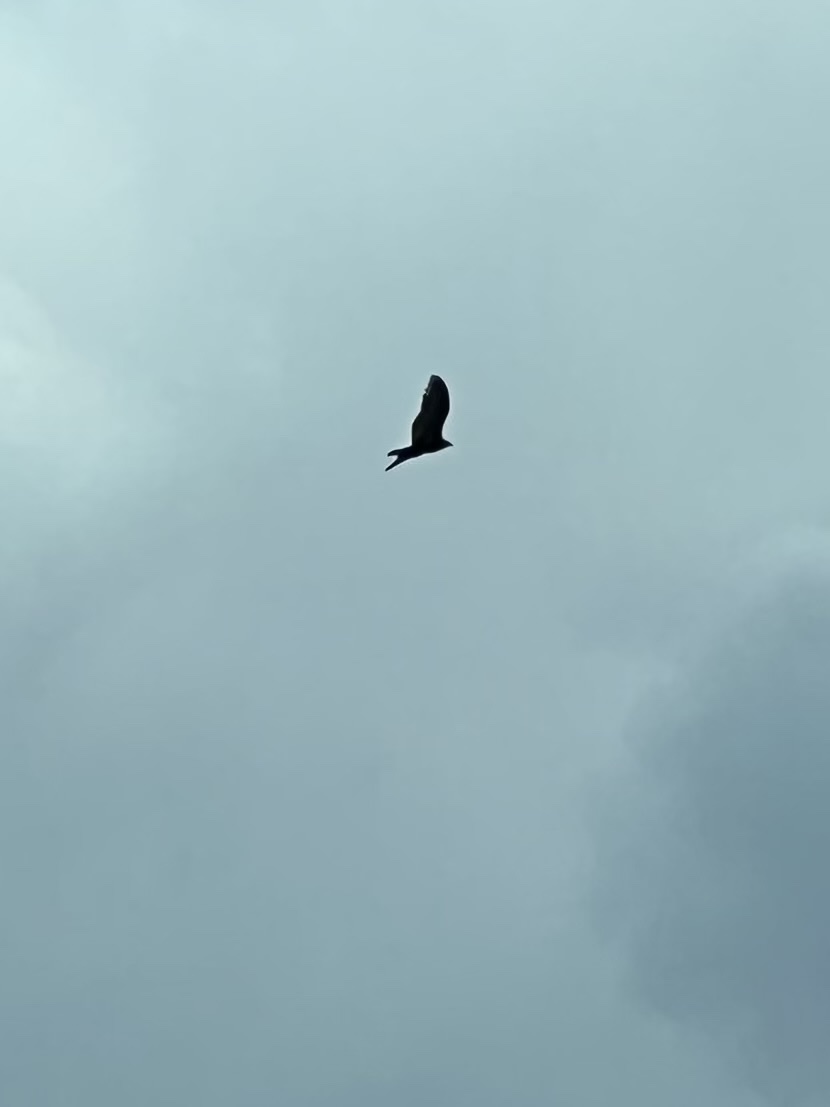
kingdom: Animalia
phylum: Chordata
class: Aves
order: Accipitriformes
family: Cathartidae
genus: Cathartes
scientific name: Cathartes aura
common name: Turkey vulture
